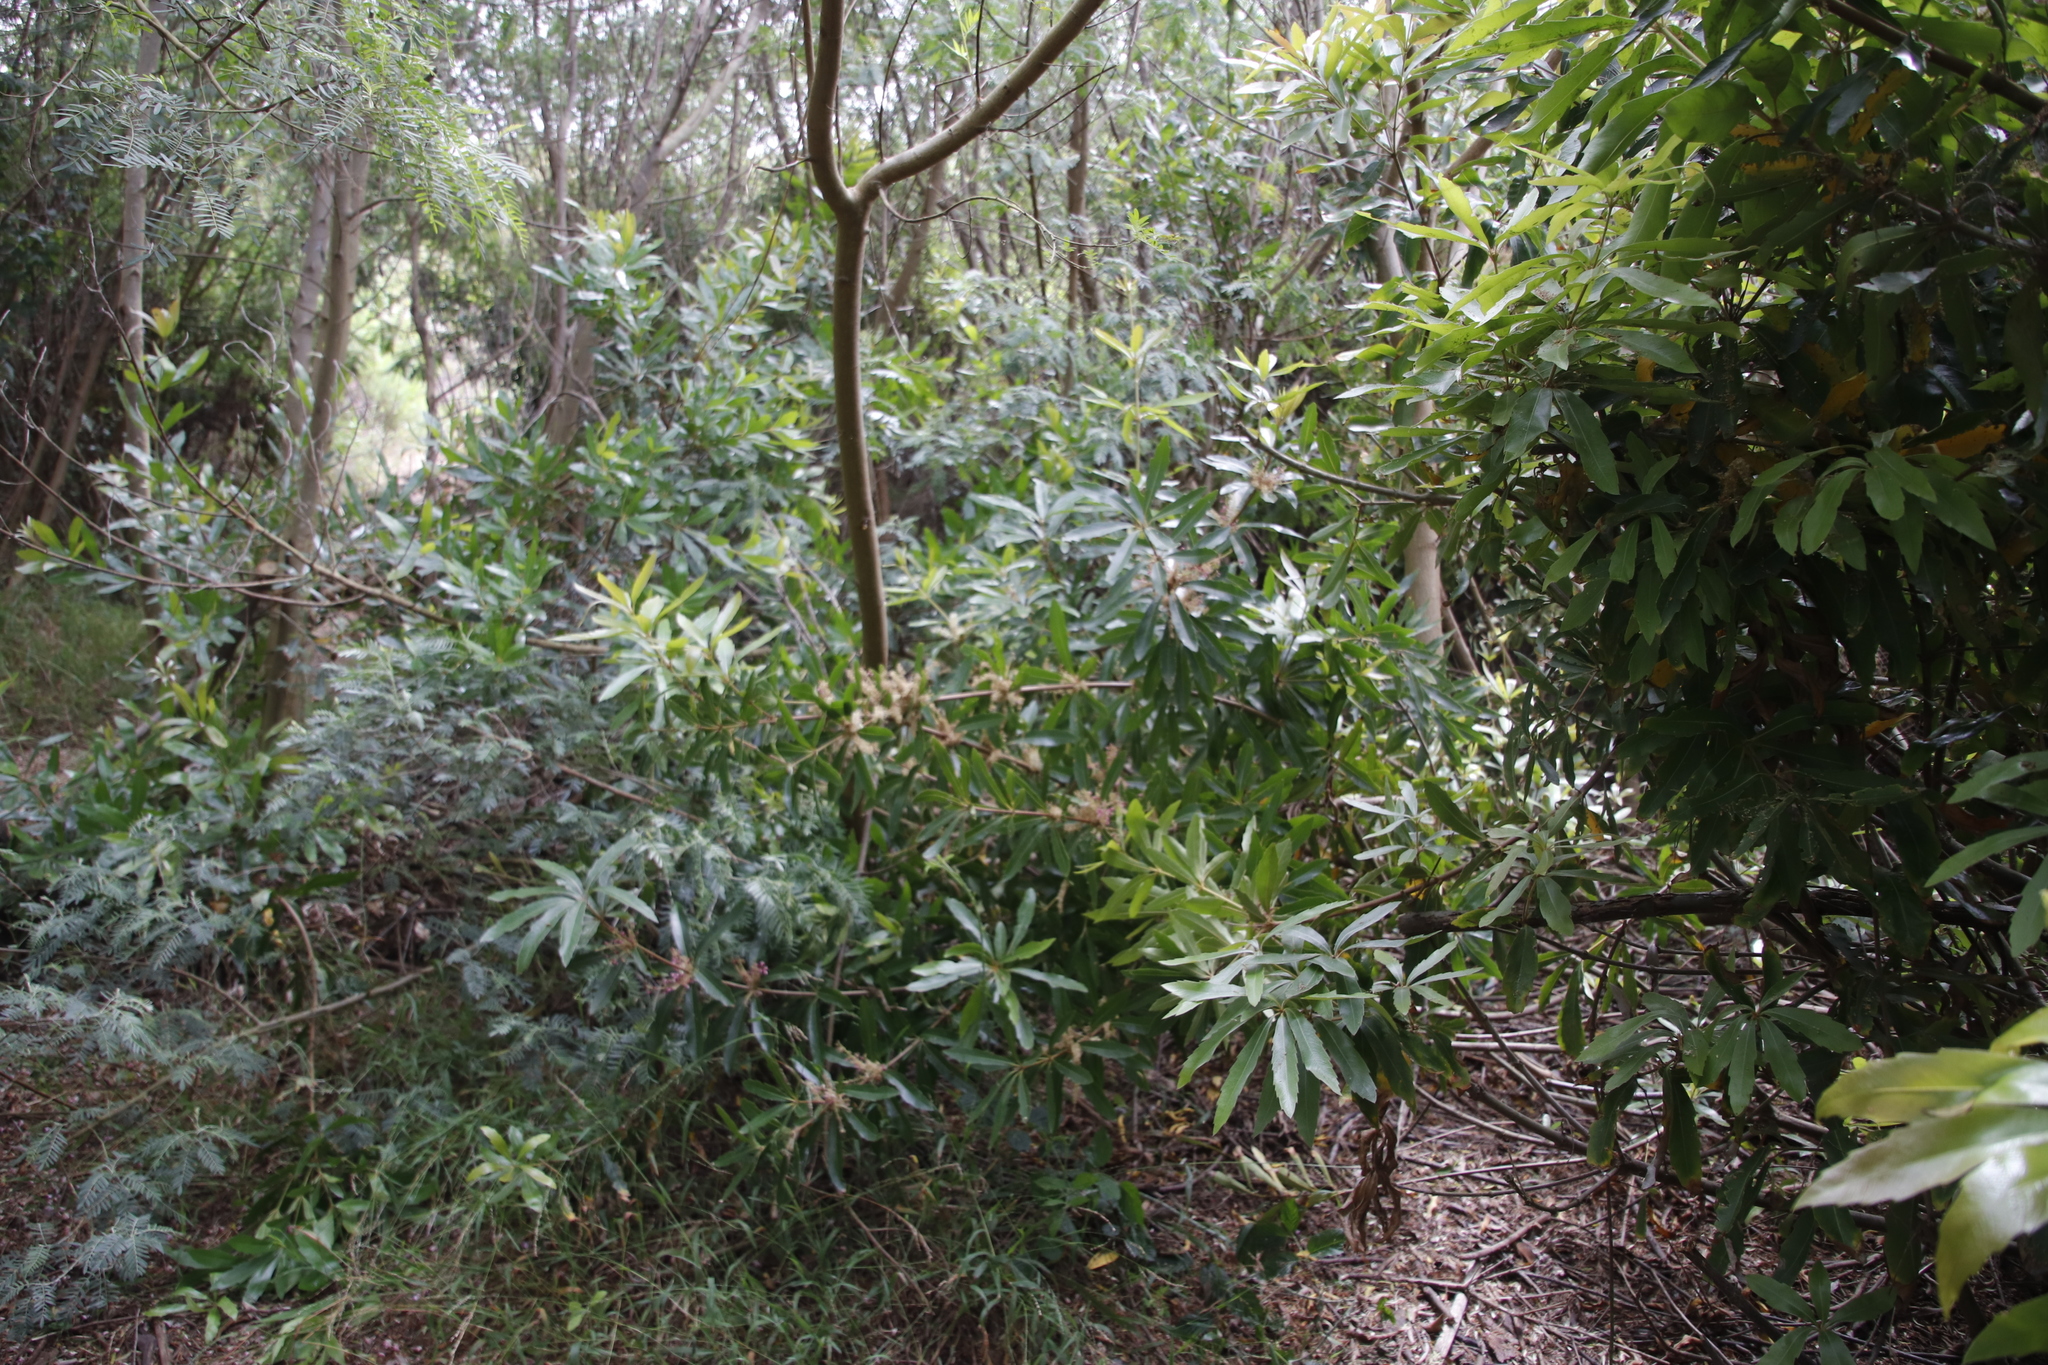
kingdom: Plantae
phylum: Tracheophyta
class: Magnoliopsida
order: Proteales
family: Proteaceae
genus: Brabejum
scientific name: Brabejum stellatifolium
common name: Wild almond
